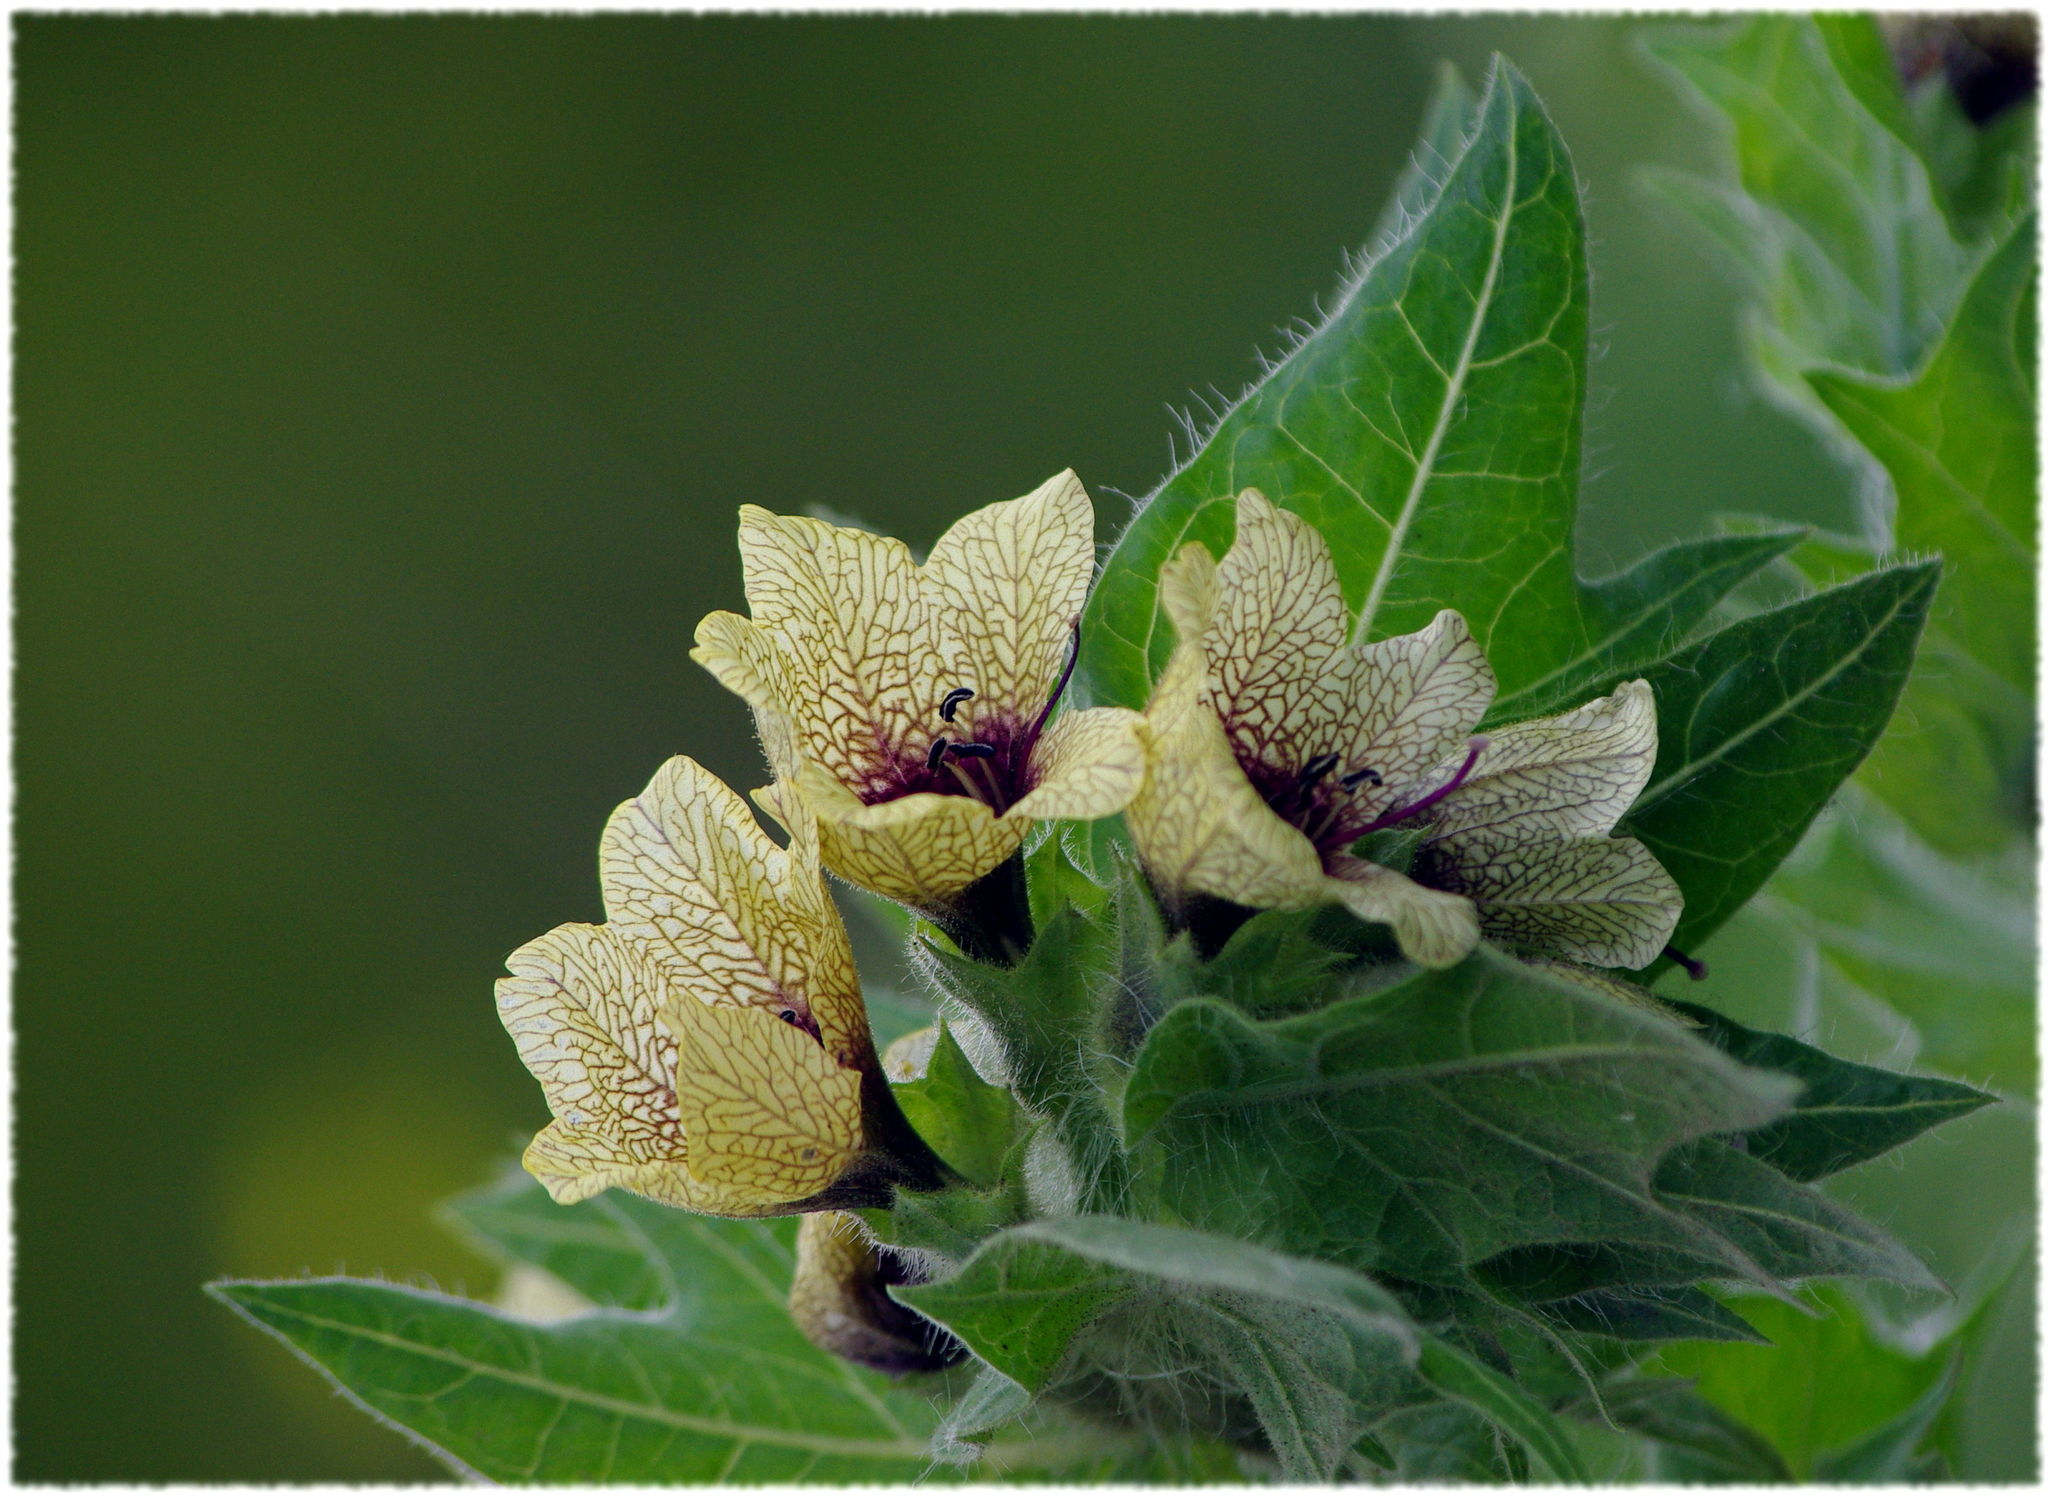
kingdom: Plantae
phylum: Tracheophyta
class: Magnoliopsida
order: Solanales
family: Solanaceae
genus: Hyoscyamus
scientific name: Hyoscyamus niger
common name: Henbane
